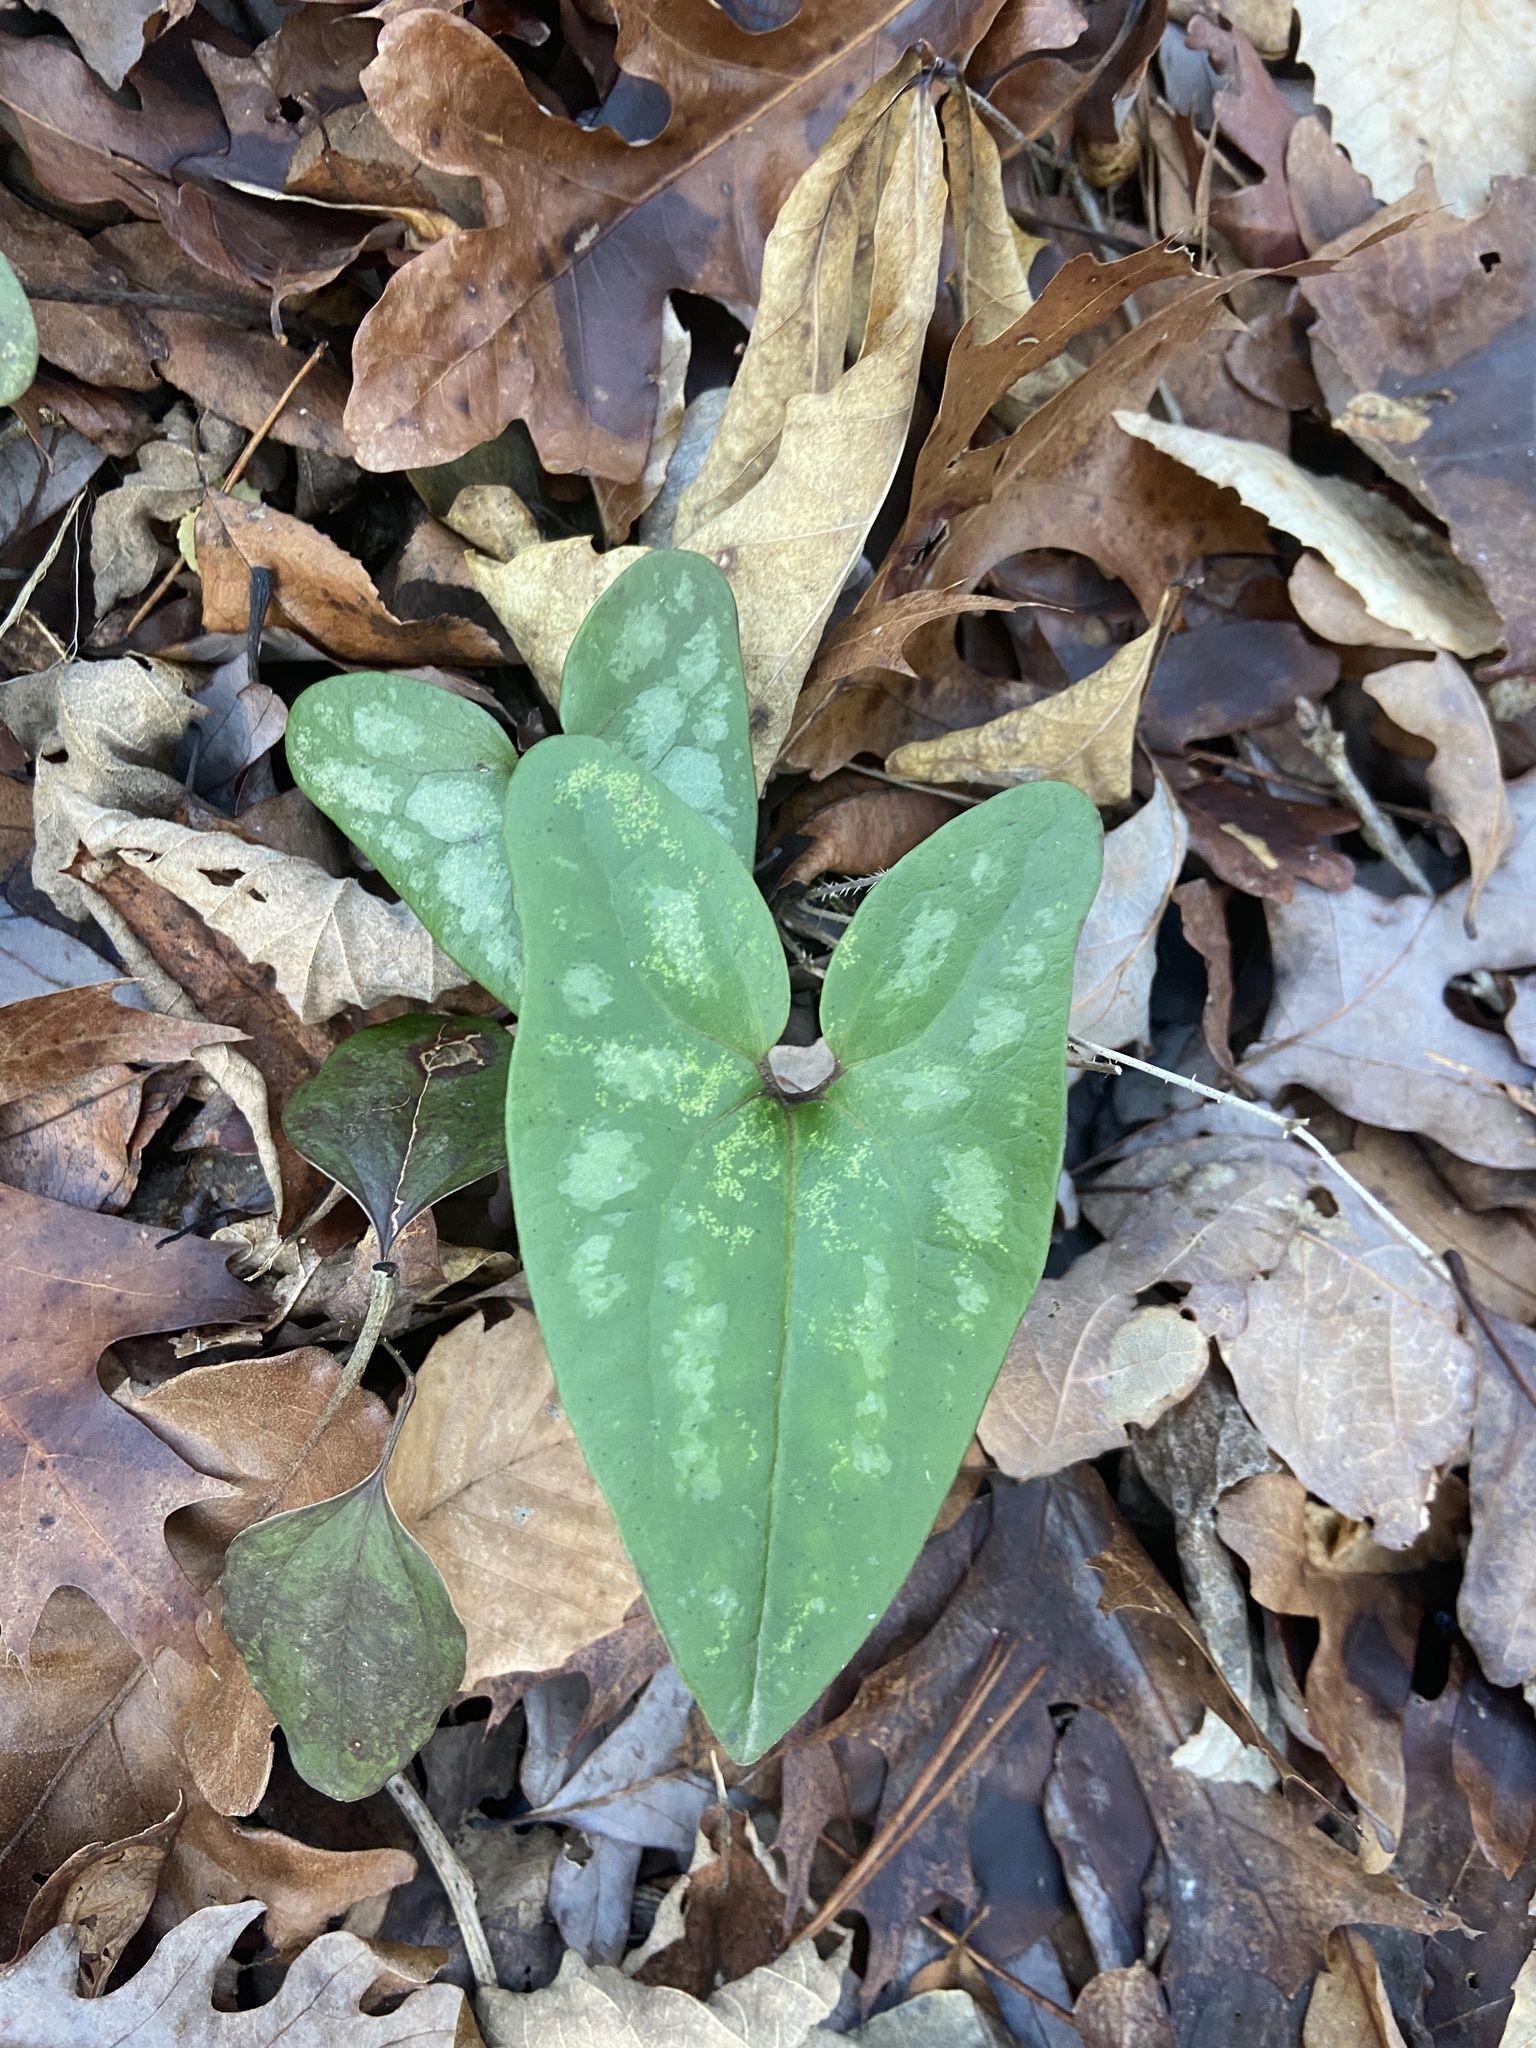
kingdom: Plantae
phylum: Tracheophyta
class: Magnoliopsida
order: Piperales
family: Aristolochiaceae
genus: Hexastylis
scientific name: Hexastylis arifolia
